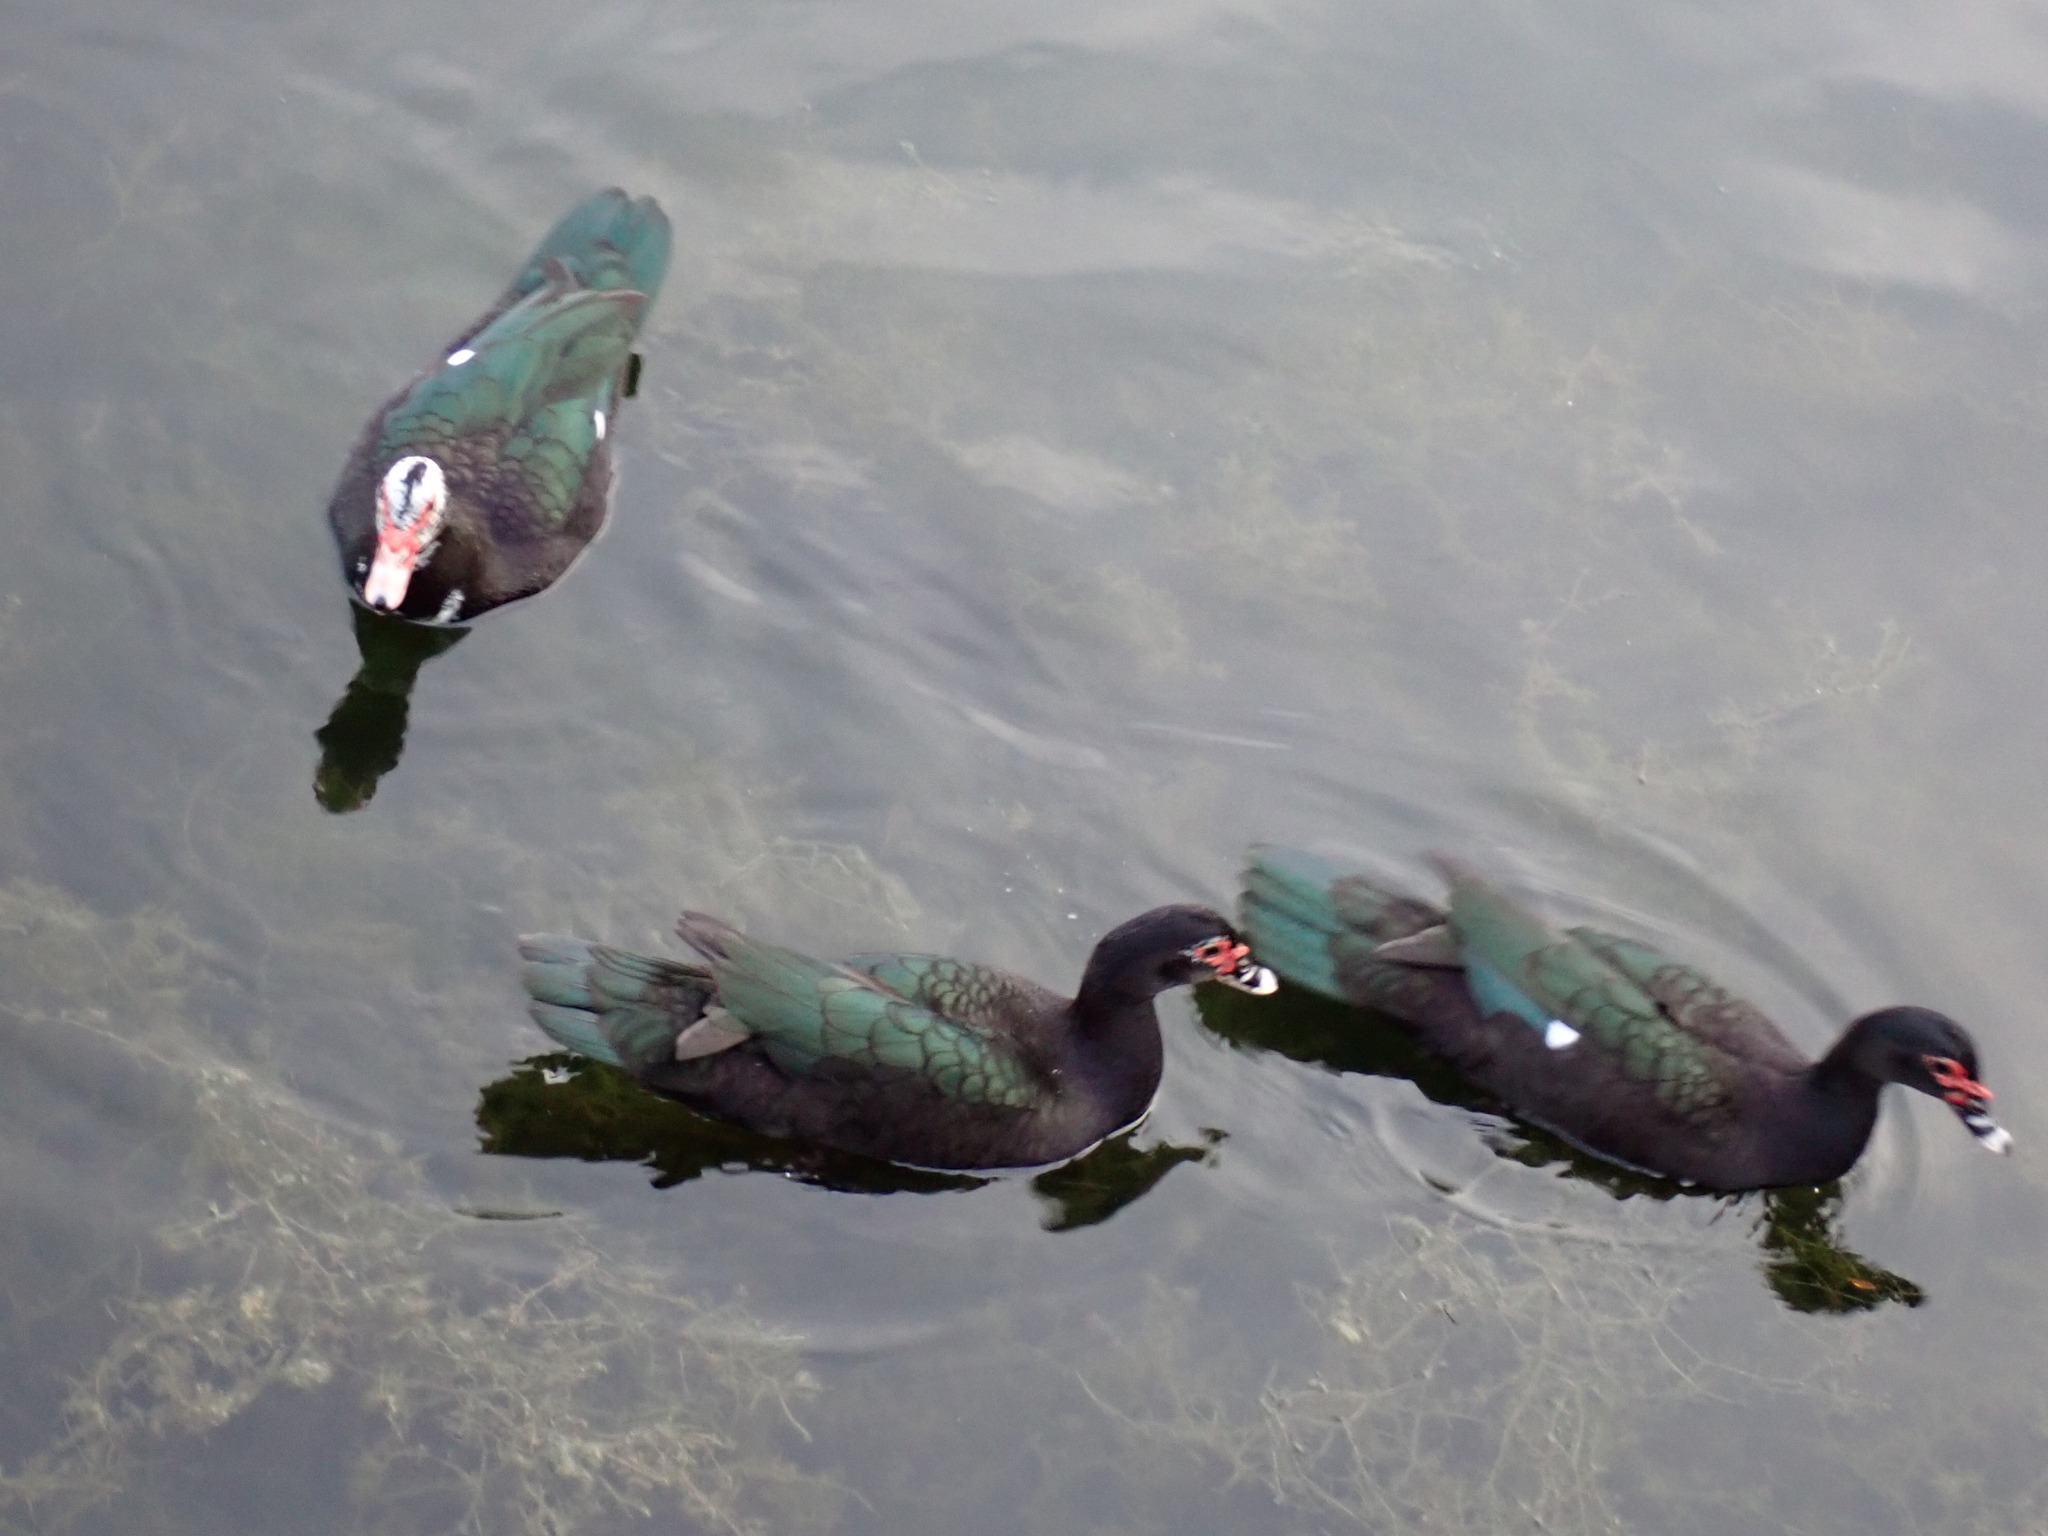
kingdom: Animalia
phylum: Chordata
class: Aves
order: Anseriformes
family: Anatidae
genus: Cairina
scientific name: Cairina moschata
